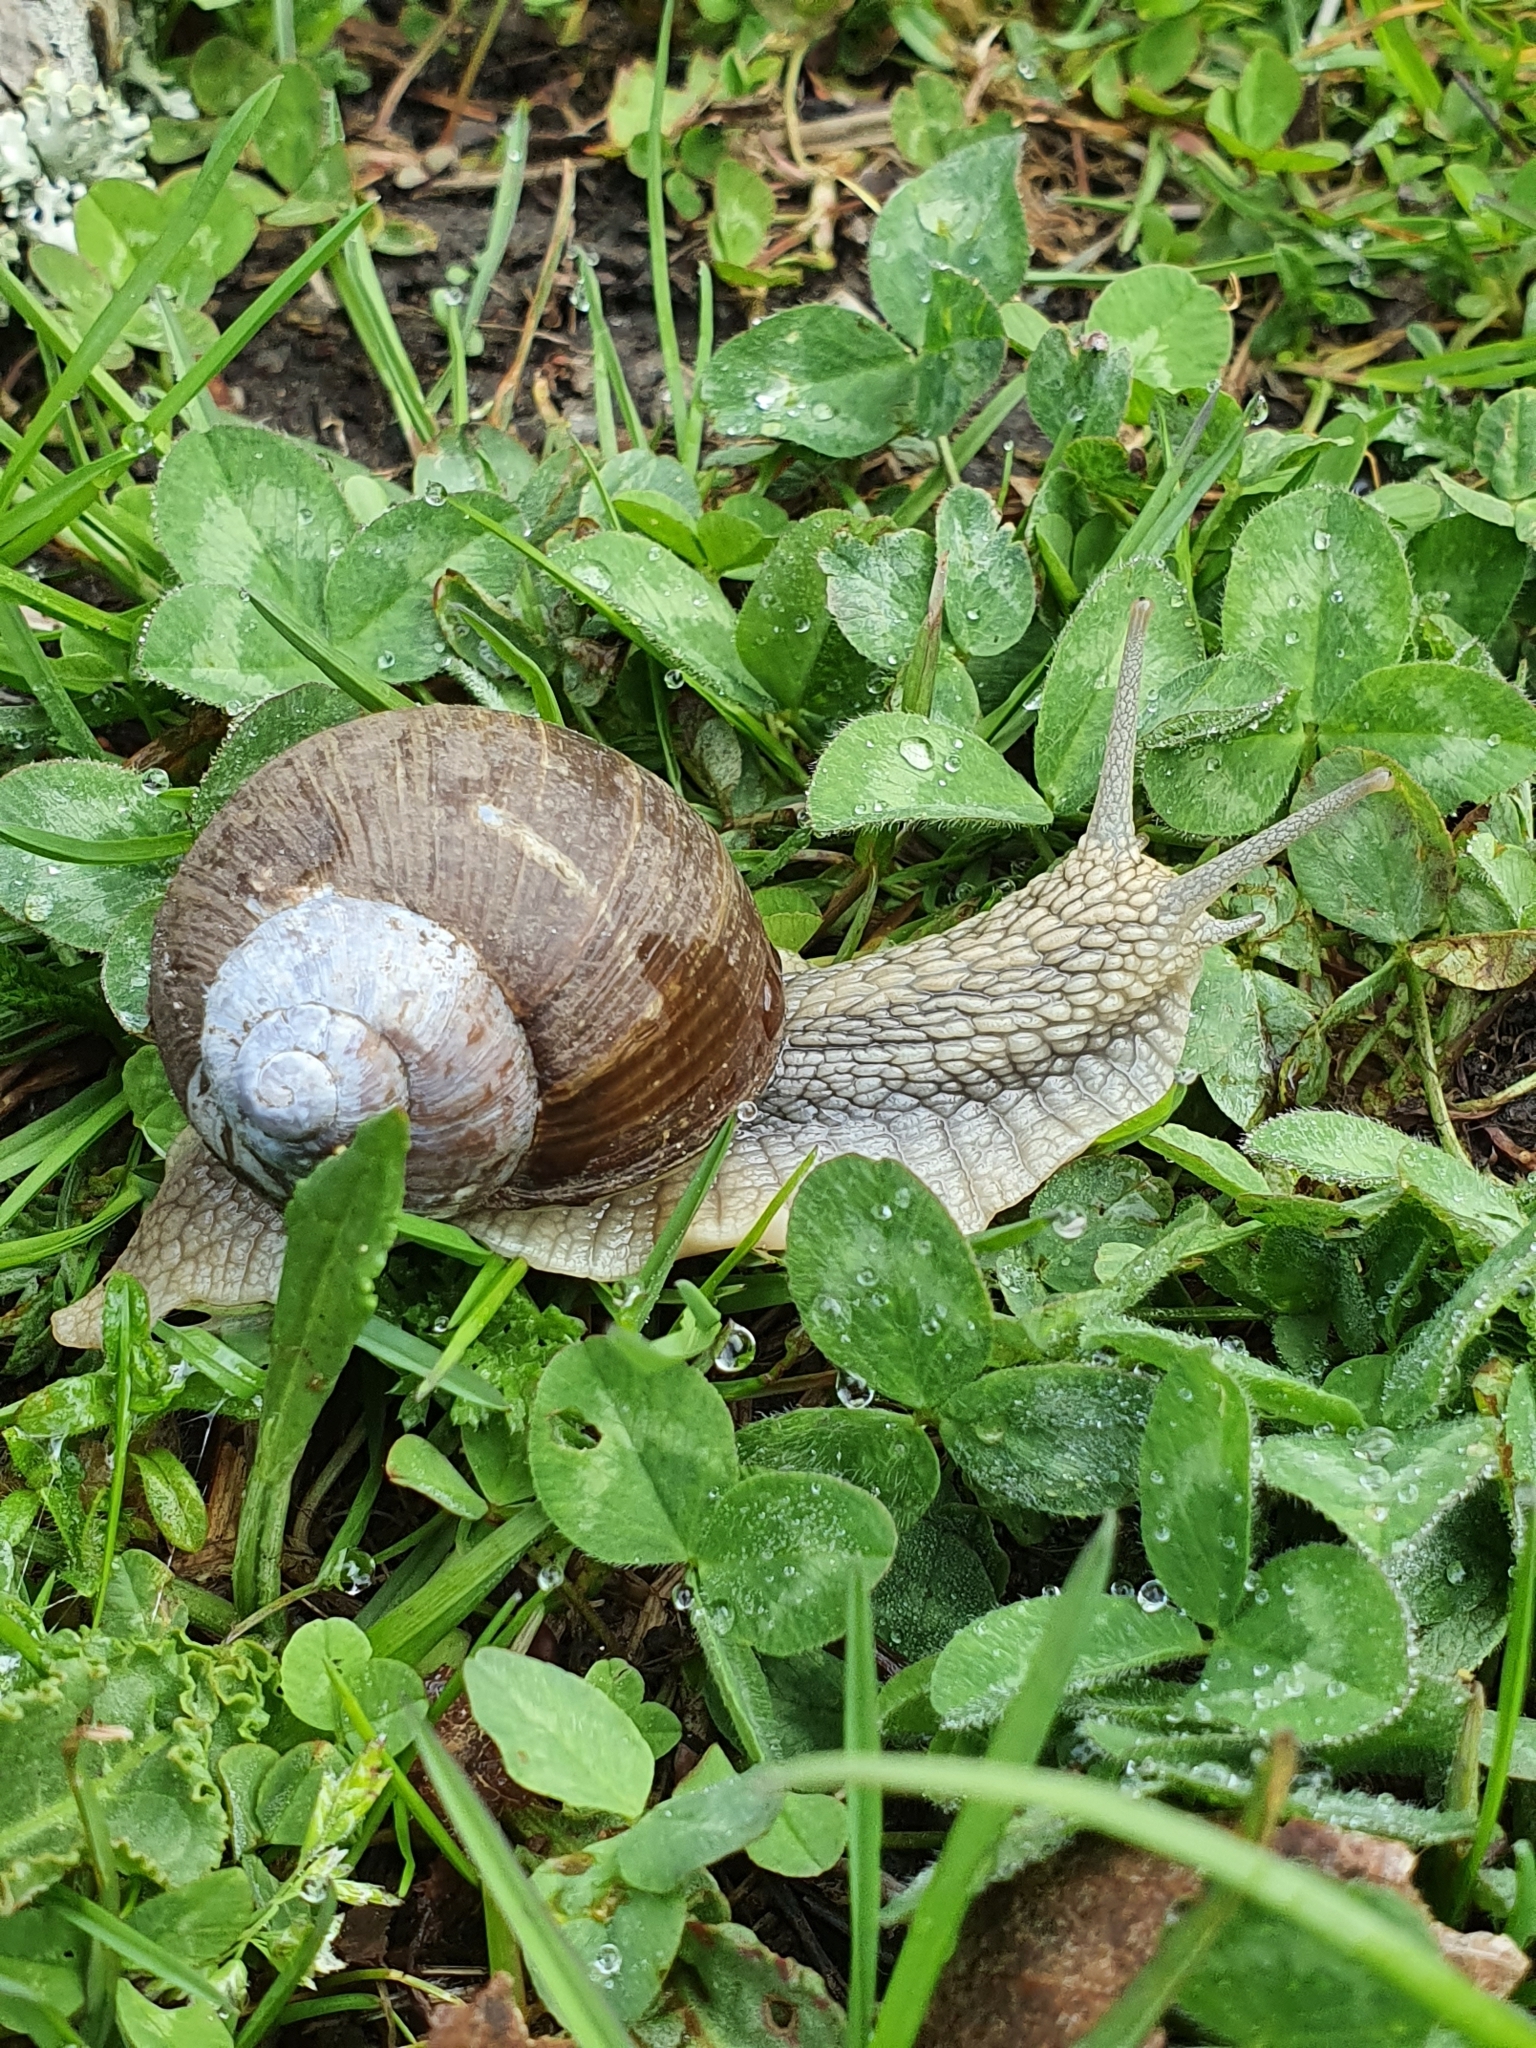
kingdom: Animalia
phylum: Mollusca
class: Gastropoda
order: Stylommatophora
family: Helicidae
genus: Helix
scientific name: Helix pomatia
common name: Roman snail
